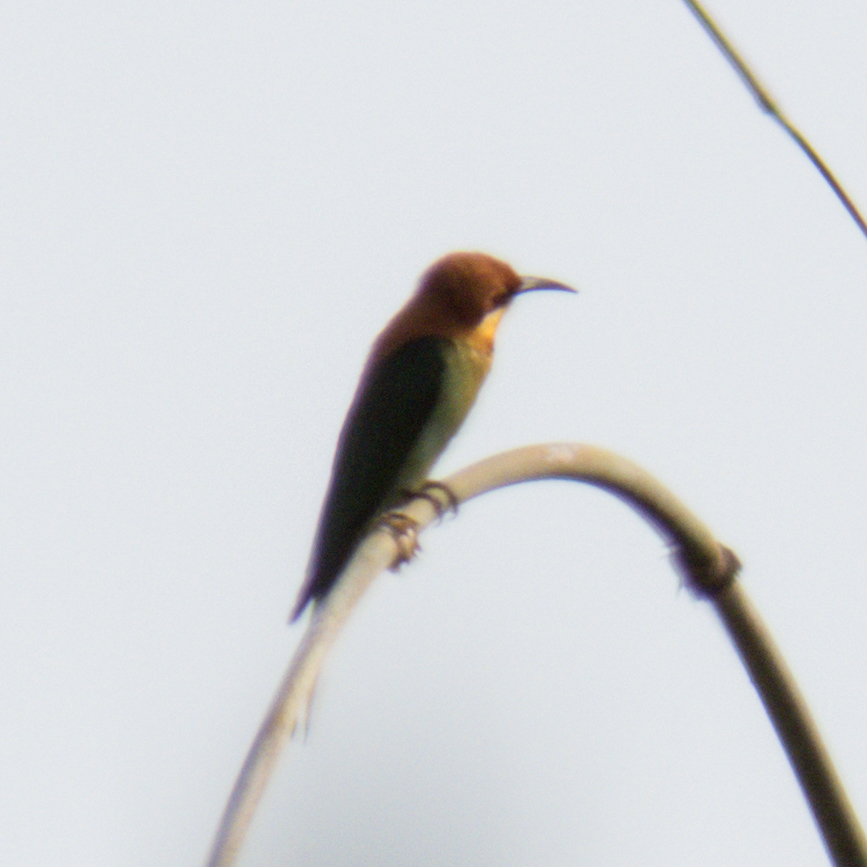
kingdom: Animalia
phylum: Chordata
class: Aves
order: Coraciiformes
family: Meropidae
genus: Merops
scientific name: Merops leschenaulti
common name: Chestnut-headed bee-eater
